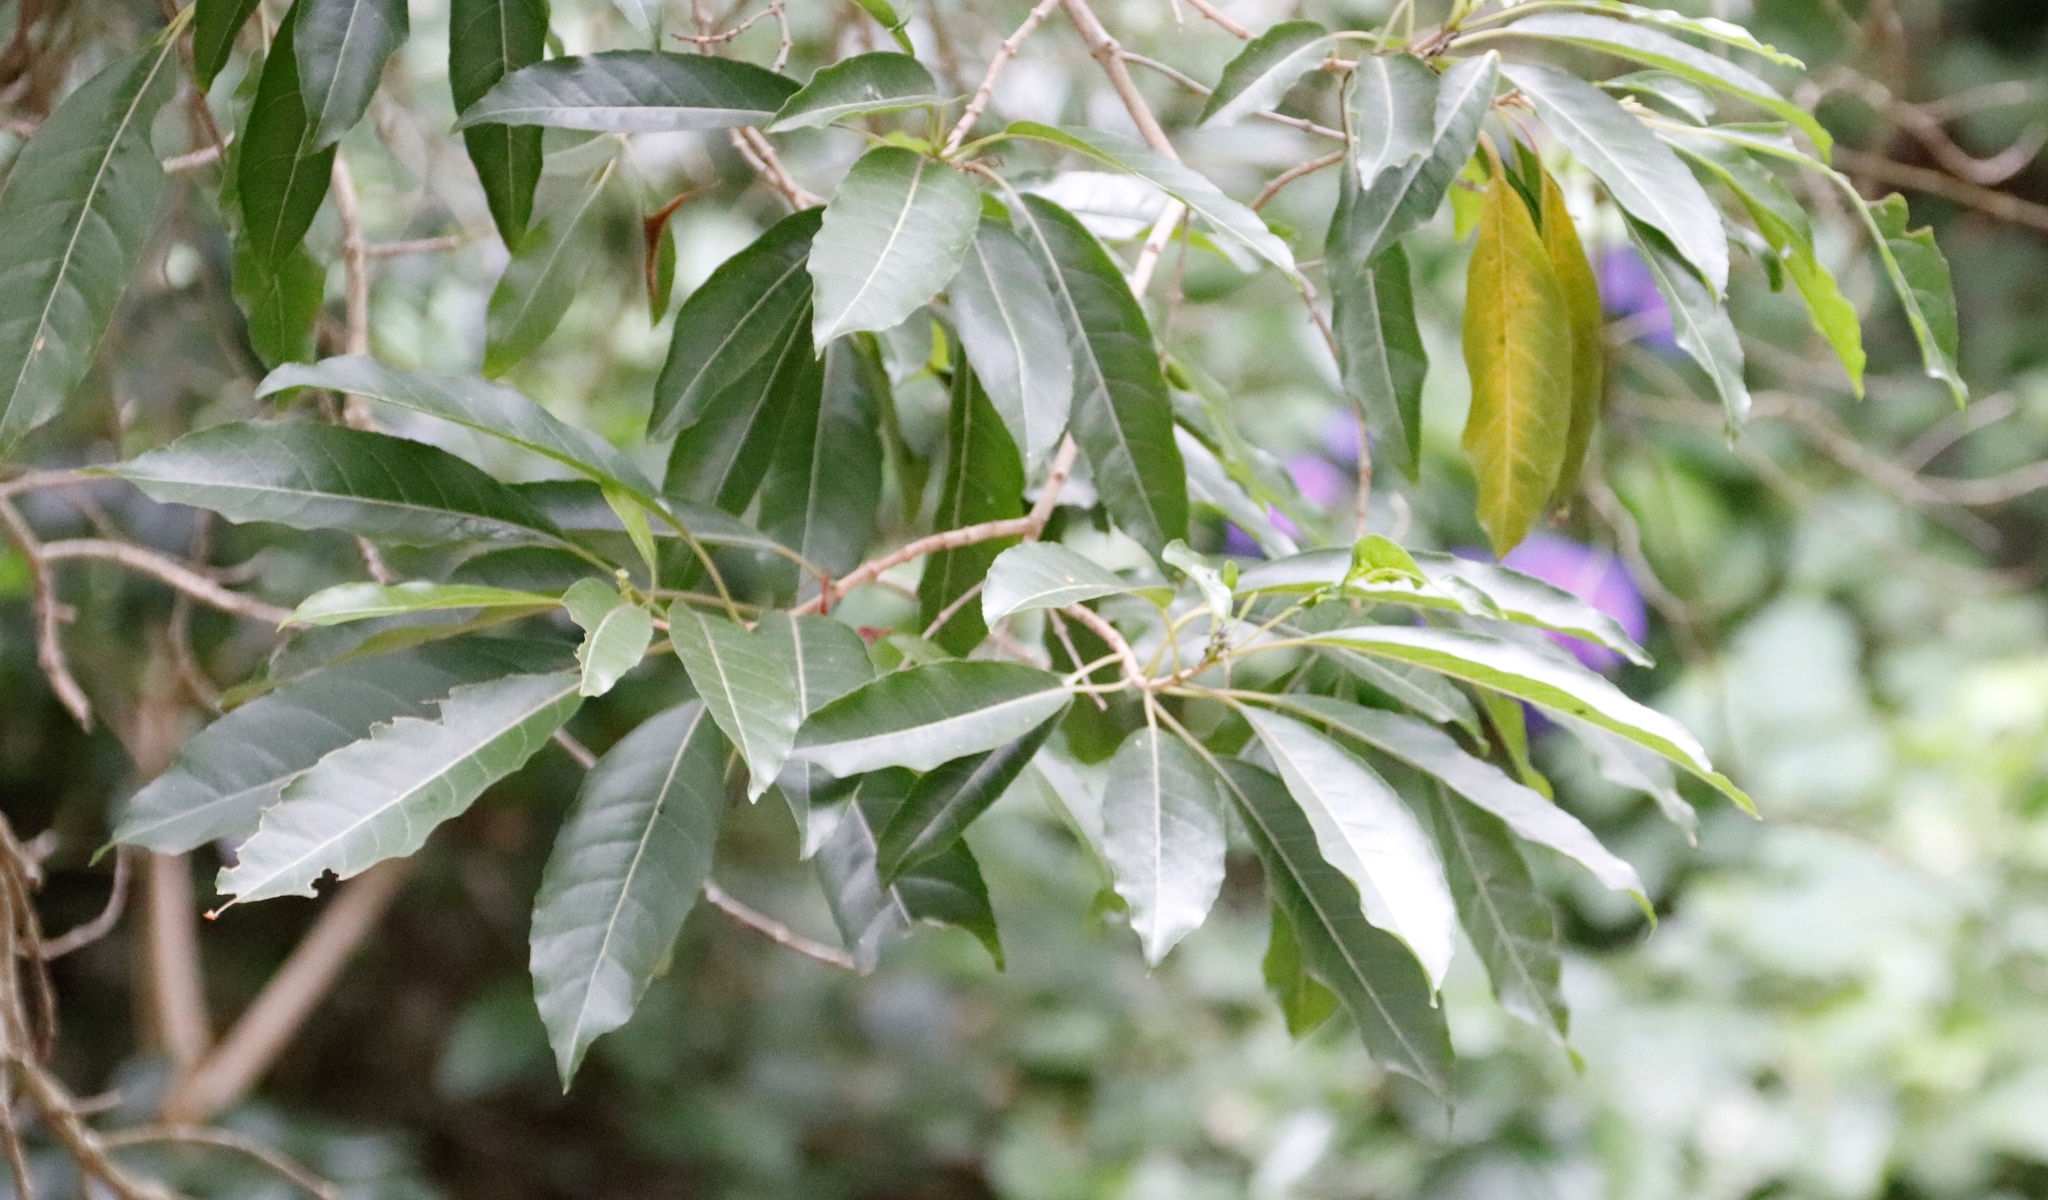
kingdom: Plantae
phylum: Tracheophyta
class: Magnoliopsida
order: Lamiales
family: Stilbaceae
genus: Nuxia
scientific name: Nuxia floribunda
